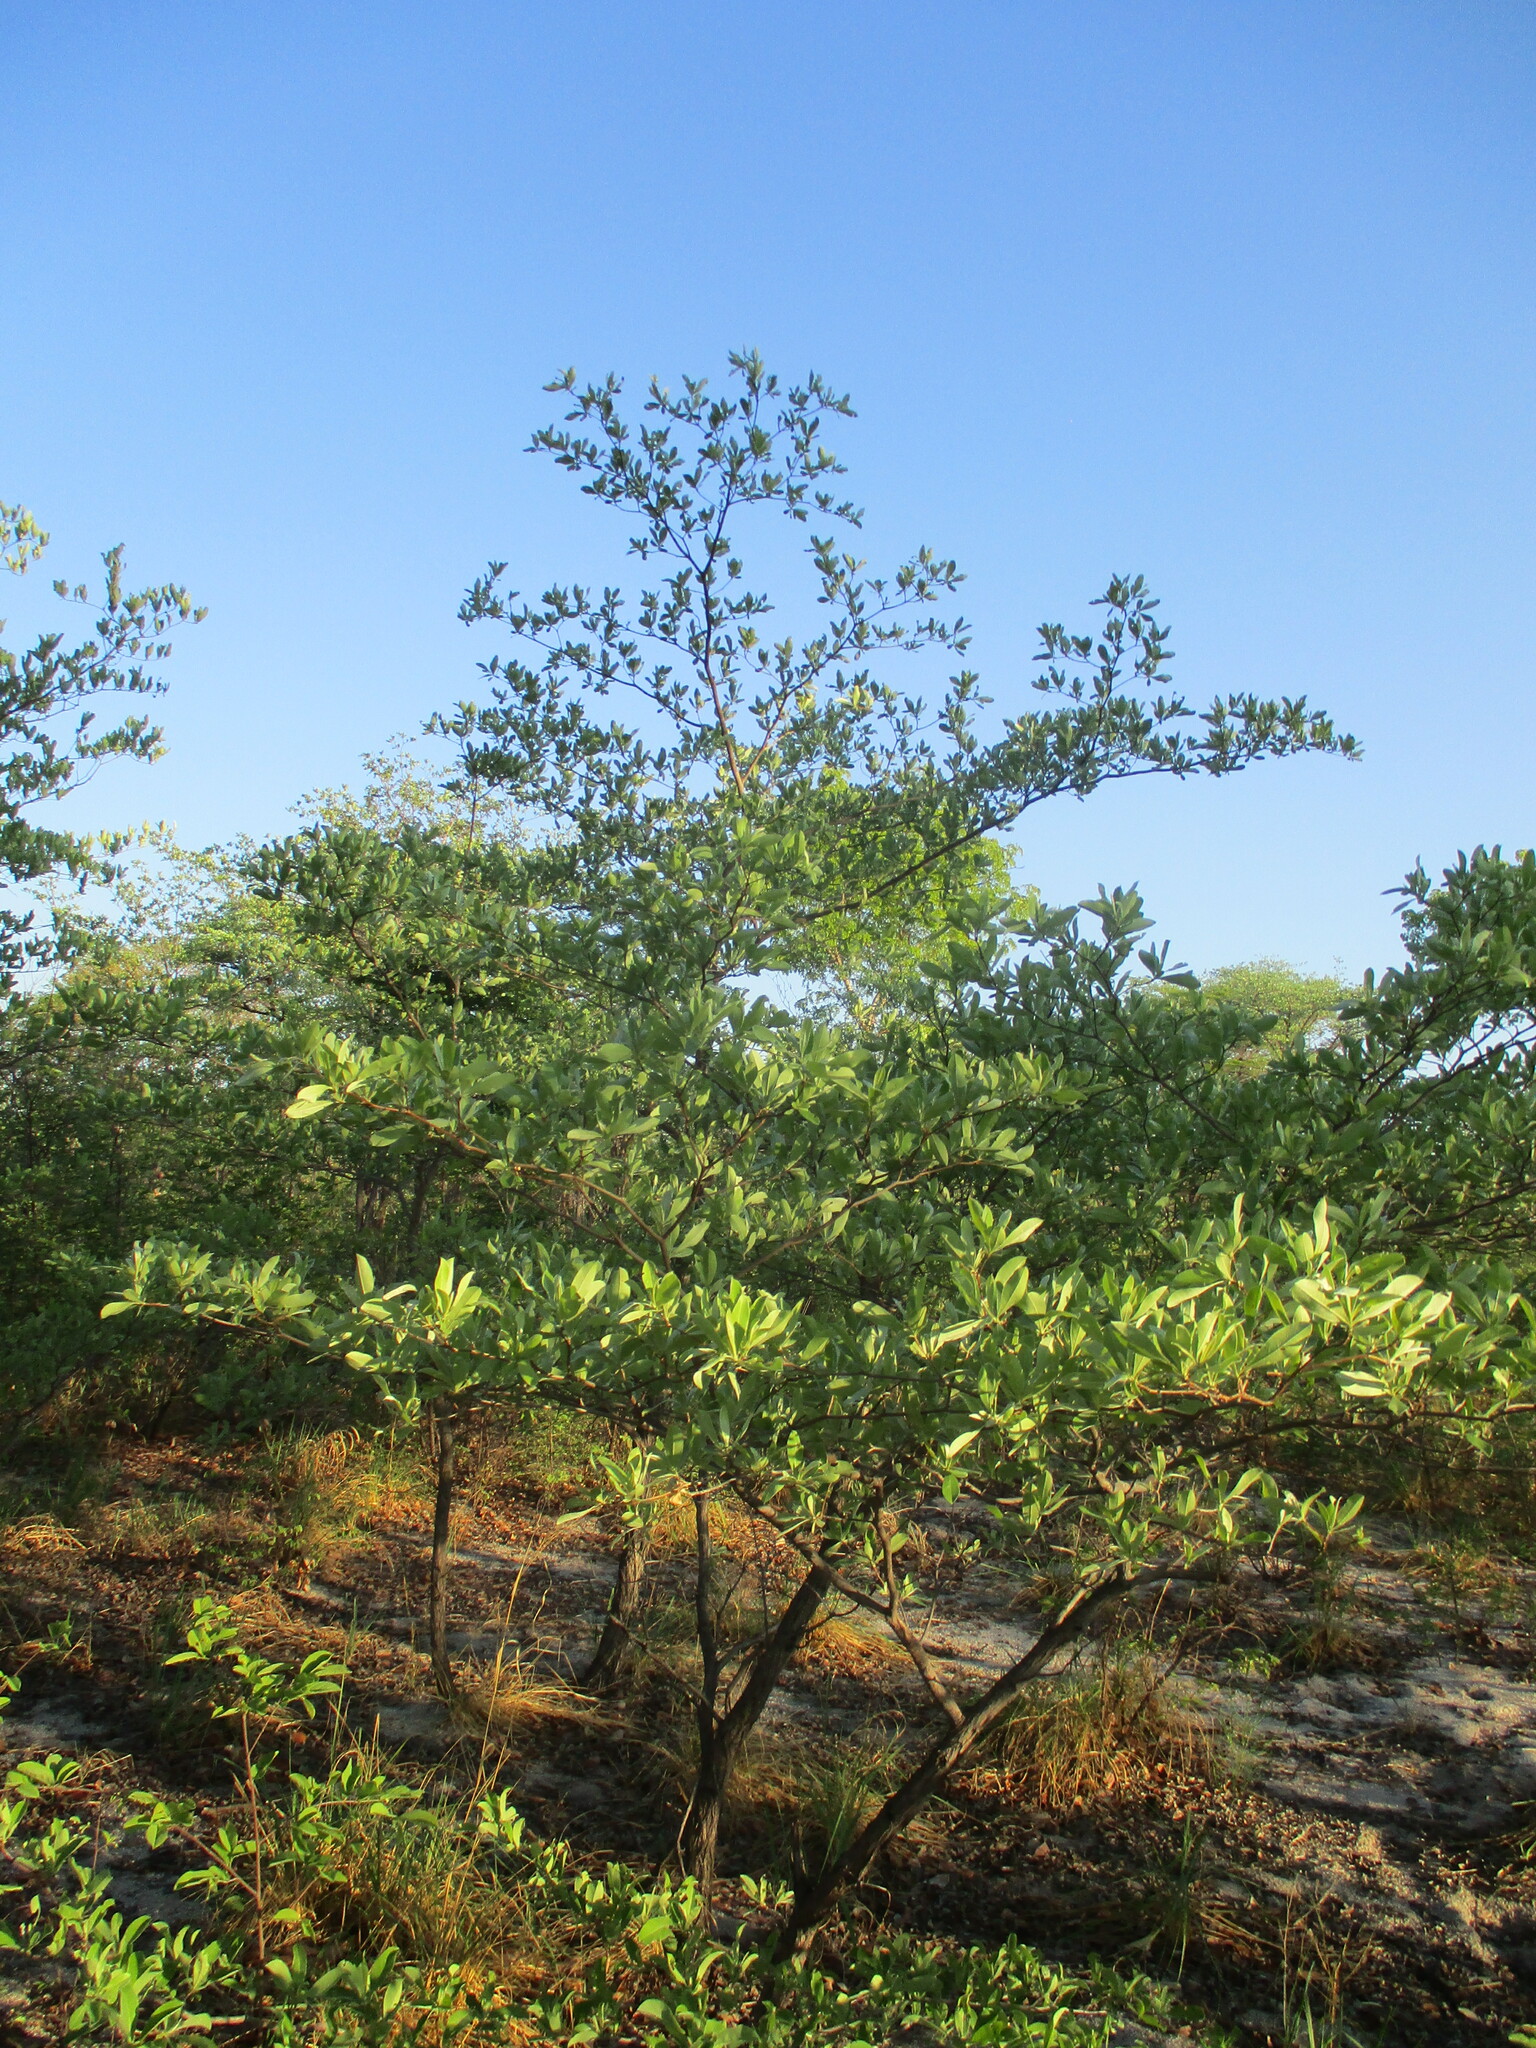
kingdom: Plantae
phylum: Tracheophyta
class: Magnoliopsida
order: Myrtales
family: Combretaceae
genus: Terminalia
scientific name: Terminalia sericea
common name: Clusterleaf
